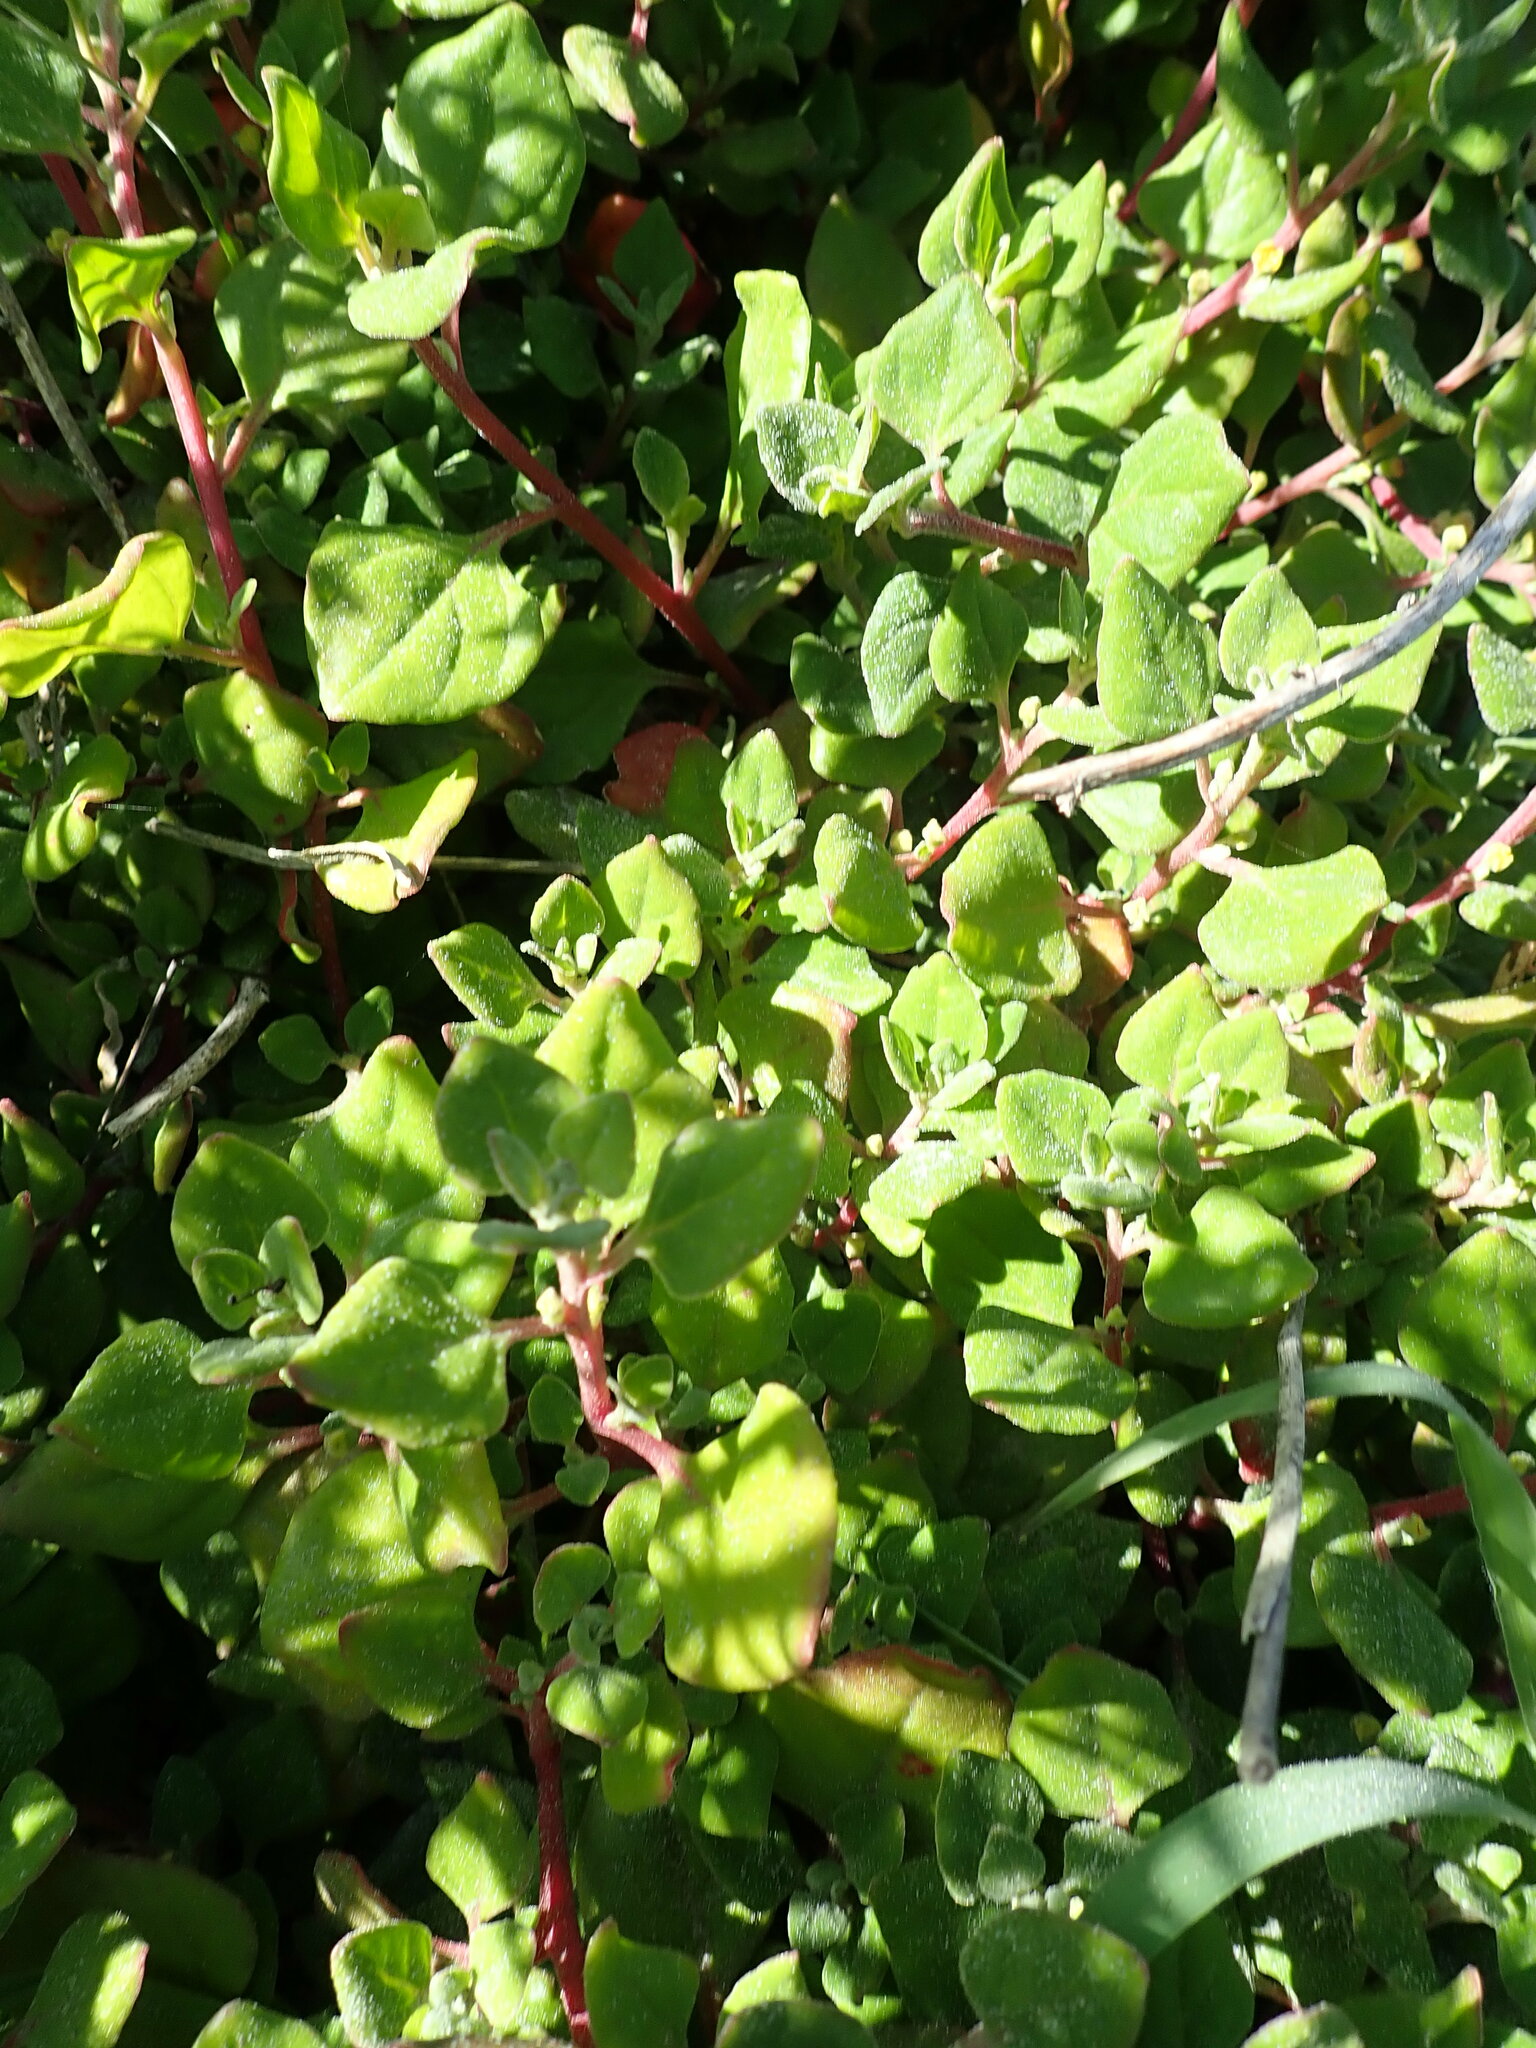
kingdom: Plantae
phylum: Tracheophyta
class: Magnoliopsida
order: Caryophyllales
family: Aizoaceae
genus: Tetragonia
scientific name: Tetragonia implexicoma
